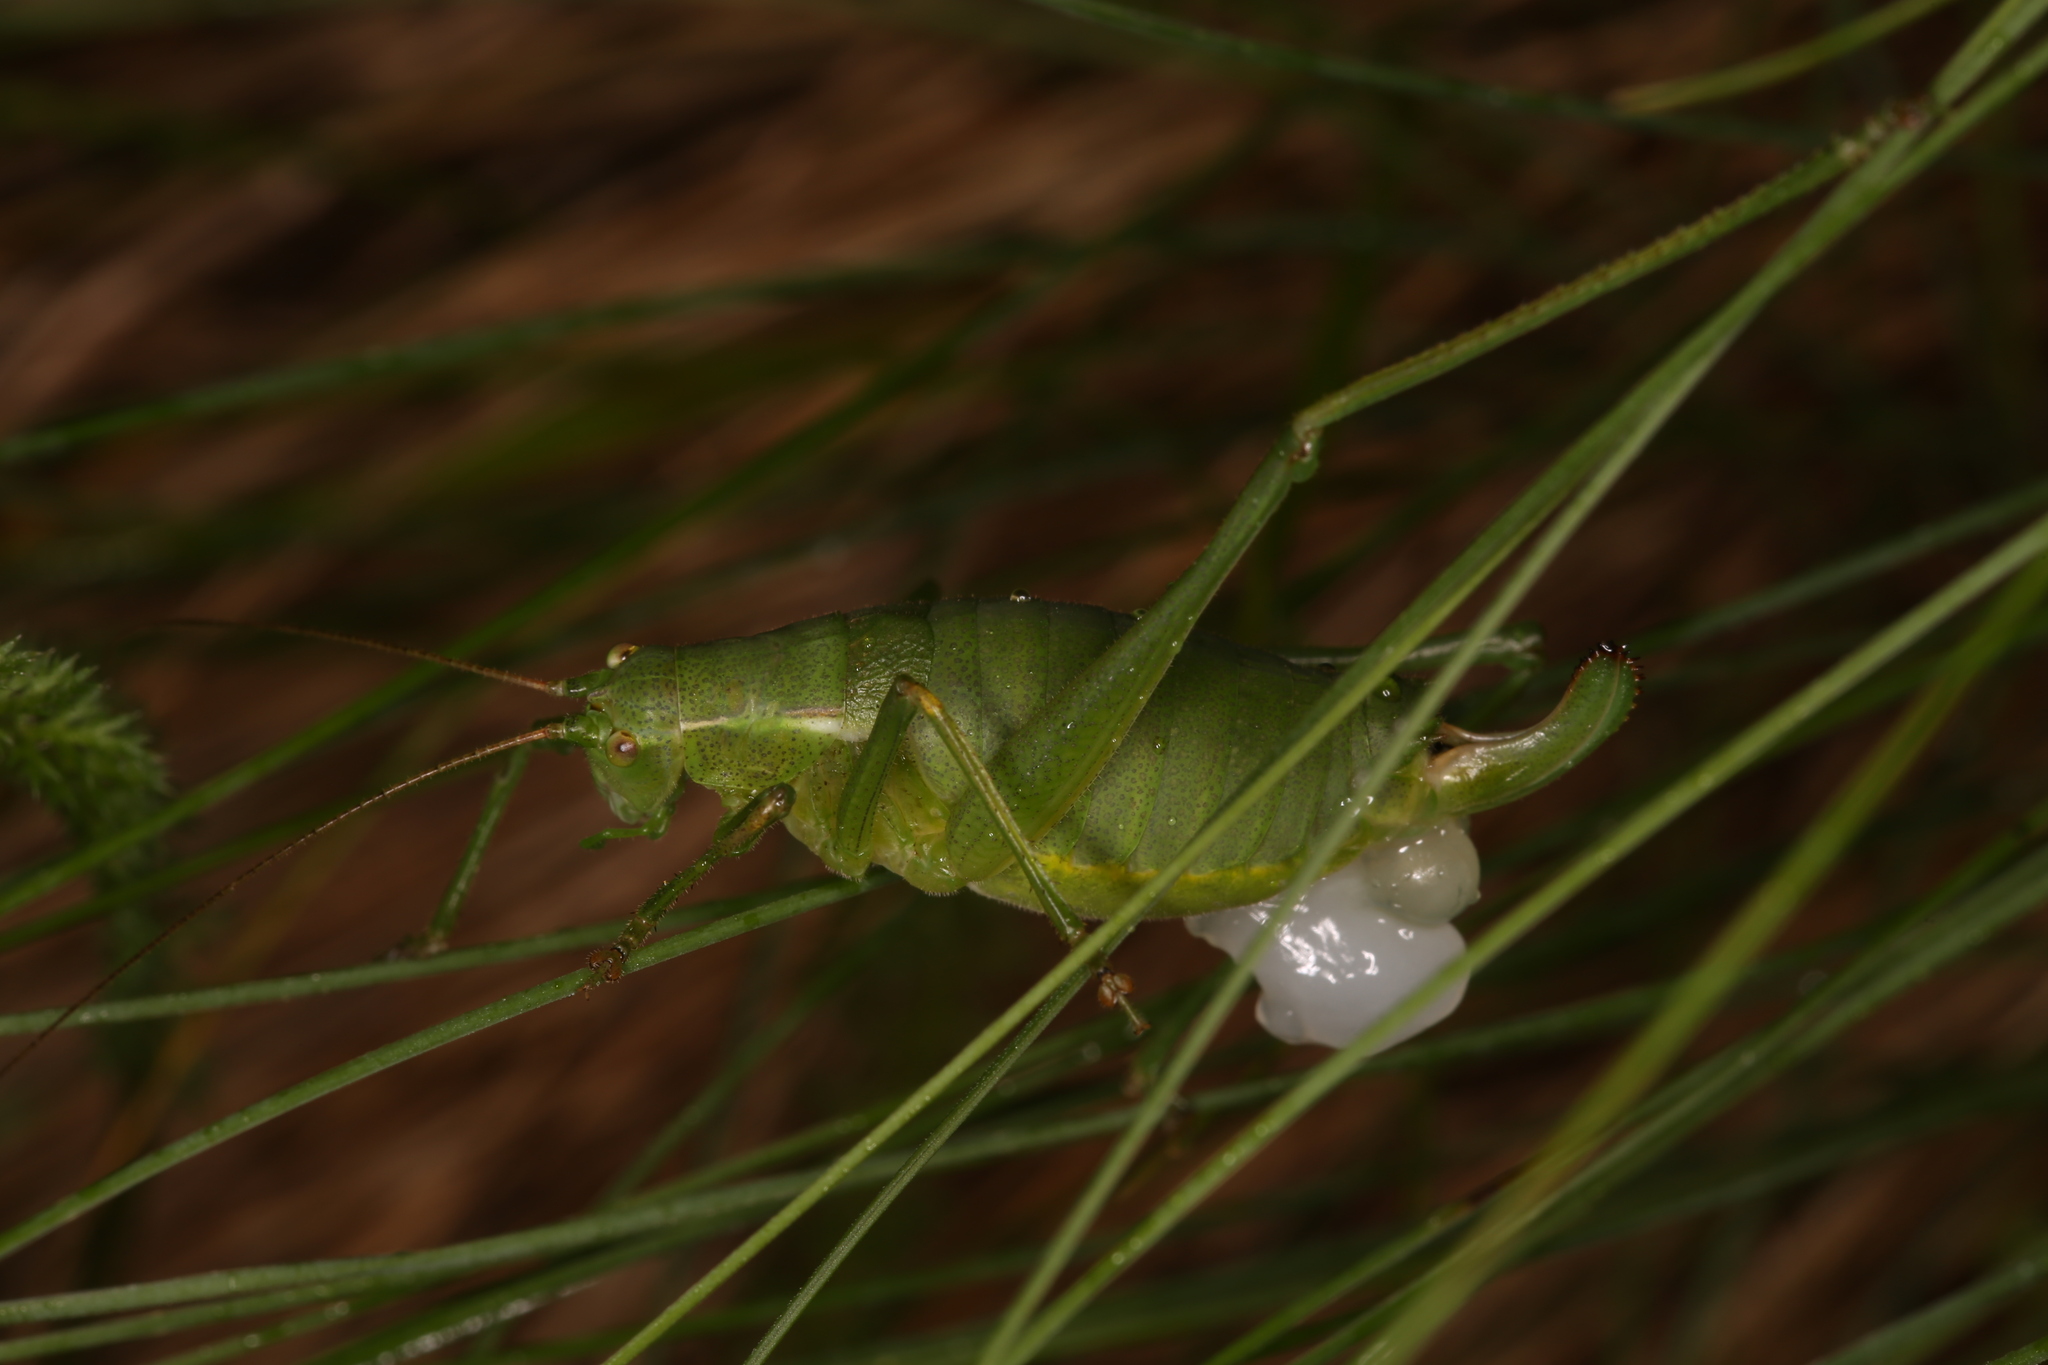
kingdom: Animalia
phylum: Arthropoda
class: Insecta
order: Orthoptera
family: Tettigoniidae
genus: Isophya
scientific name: Isophya speciosa
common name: Showy plump bush-cricket
